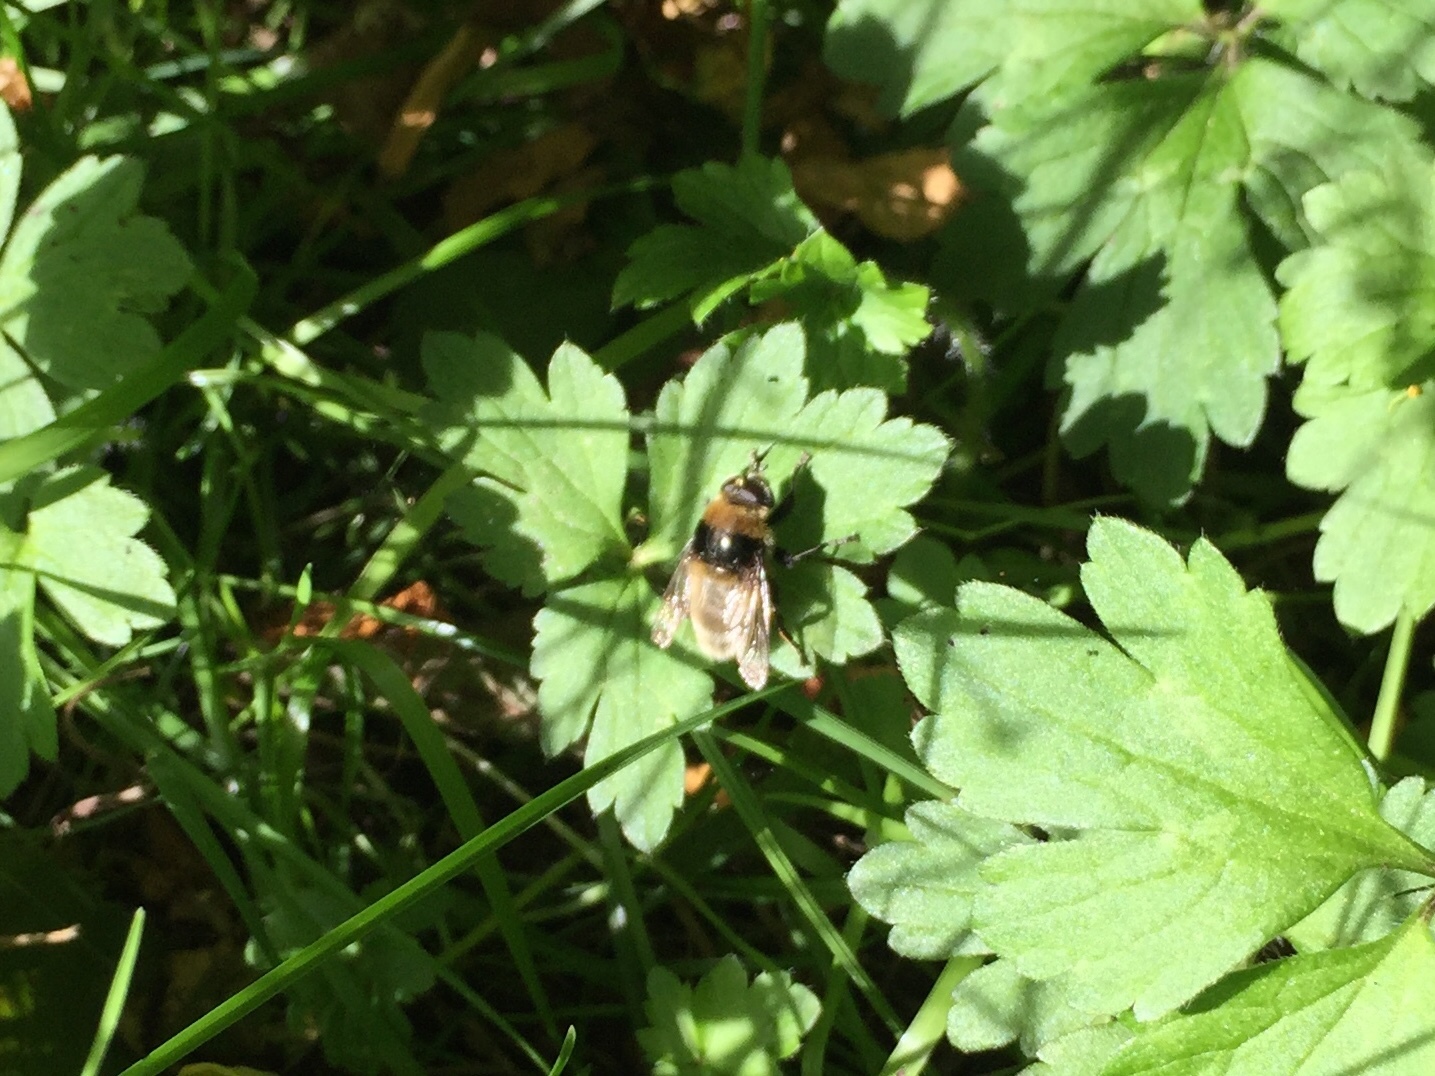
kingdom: Animalia
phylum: Arthropoda
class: Insecta
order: Diptera
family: Syrphidae
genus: Merodon
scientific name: Merodon equestris
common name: Greater bulb-fly
